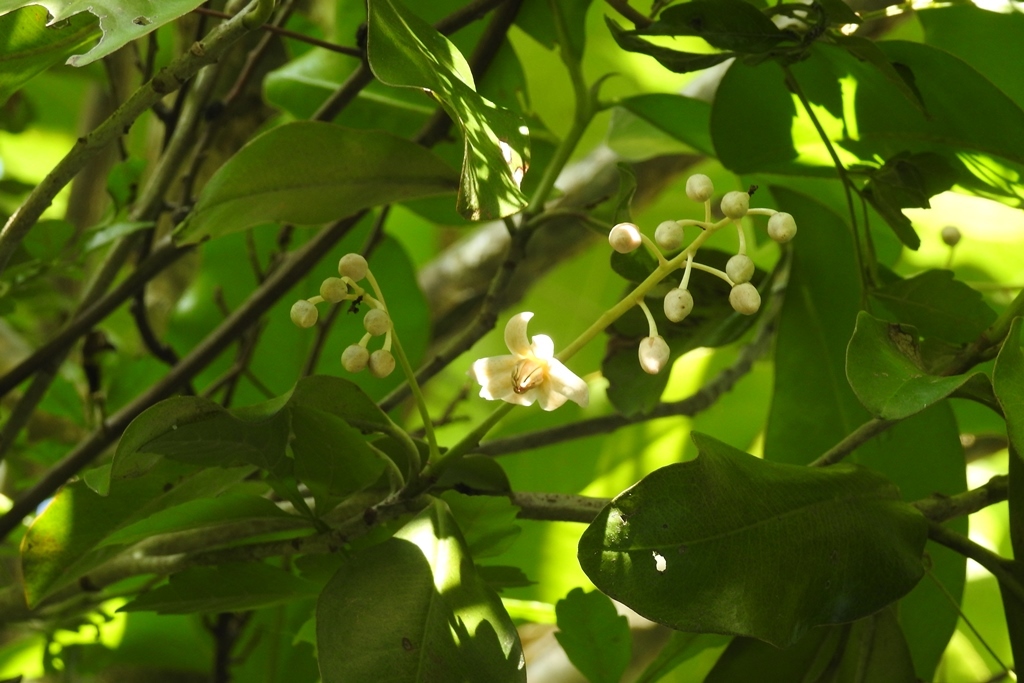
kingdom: Plantae
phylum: Tracheophyta
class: Magnoliopsida
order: Ericales
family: Primulaceae
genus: Ardisia
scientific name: Ardisia paschalis
